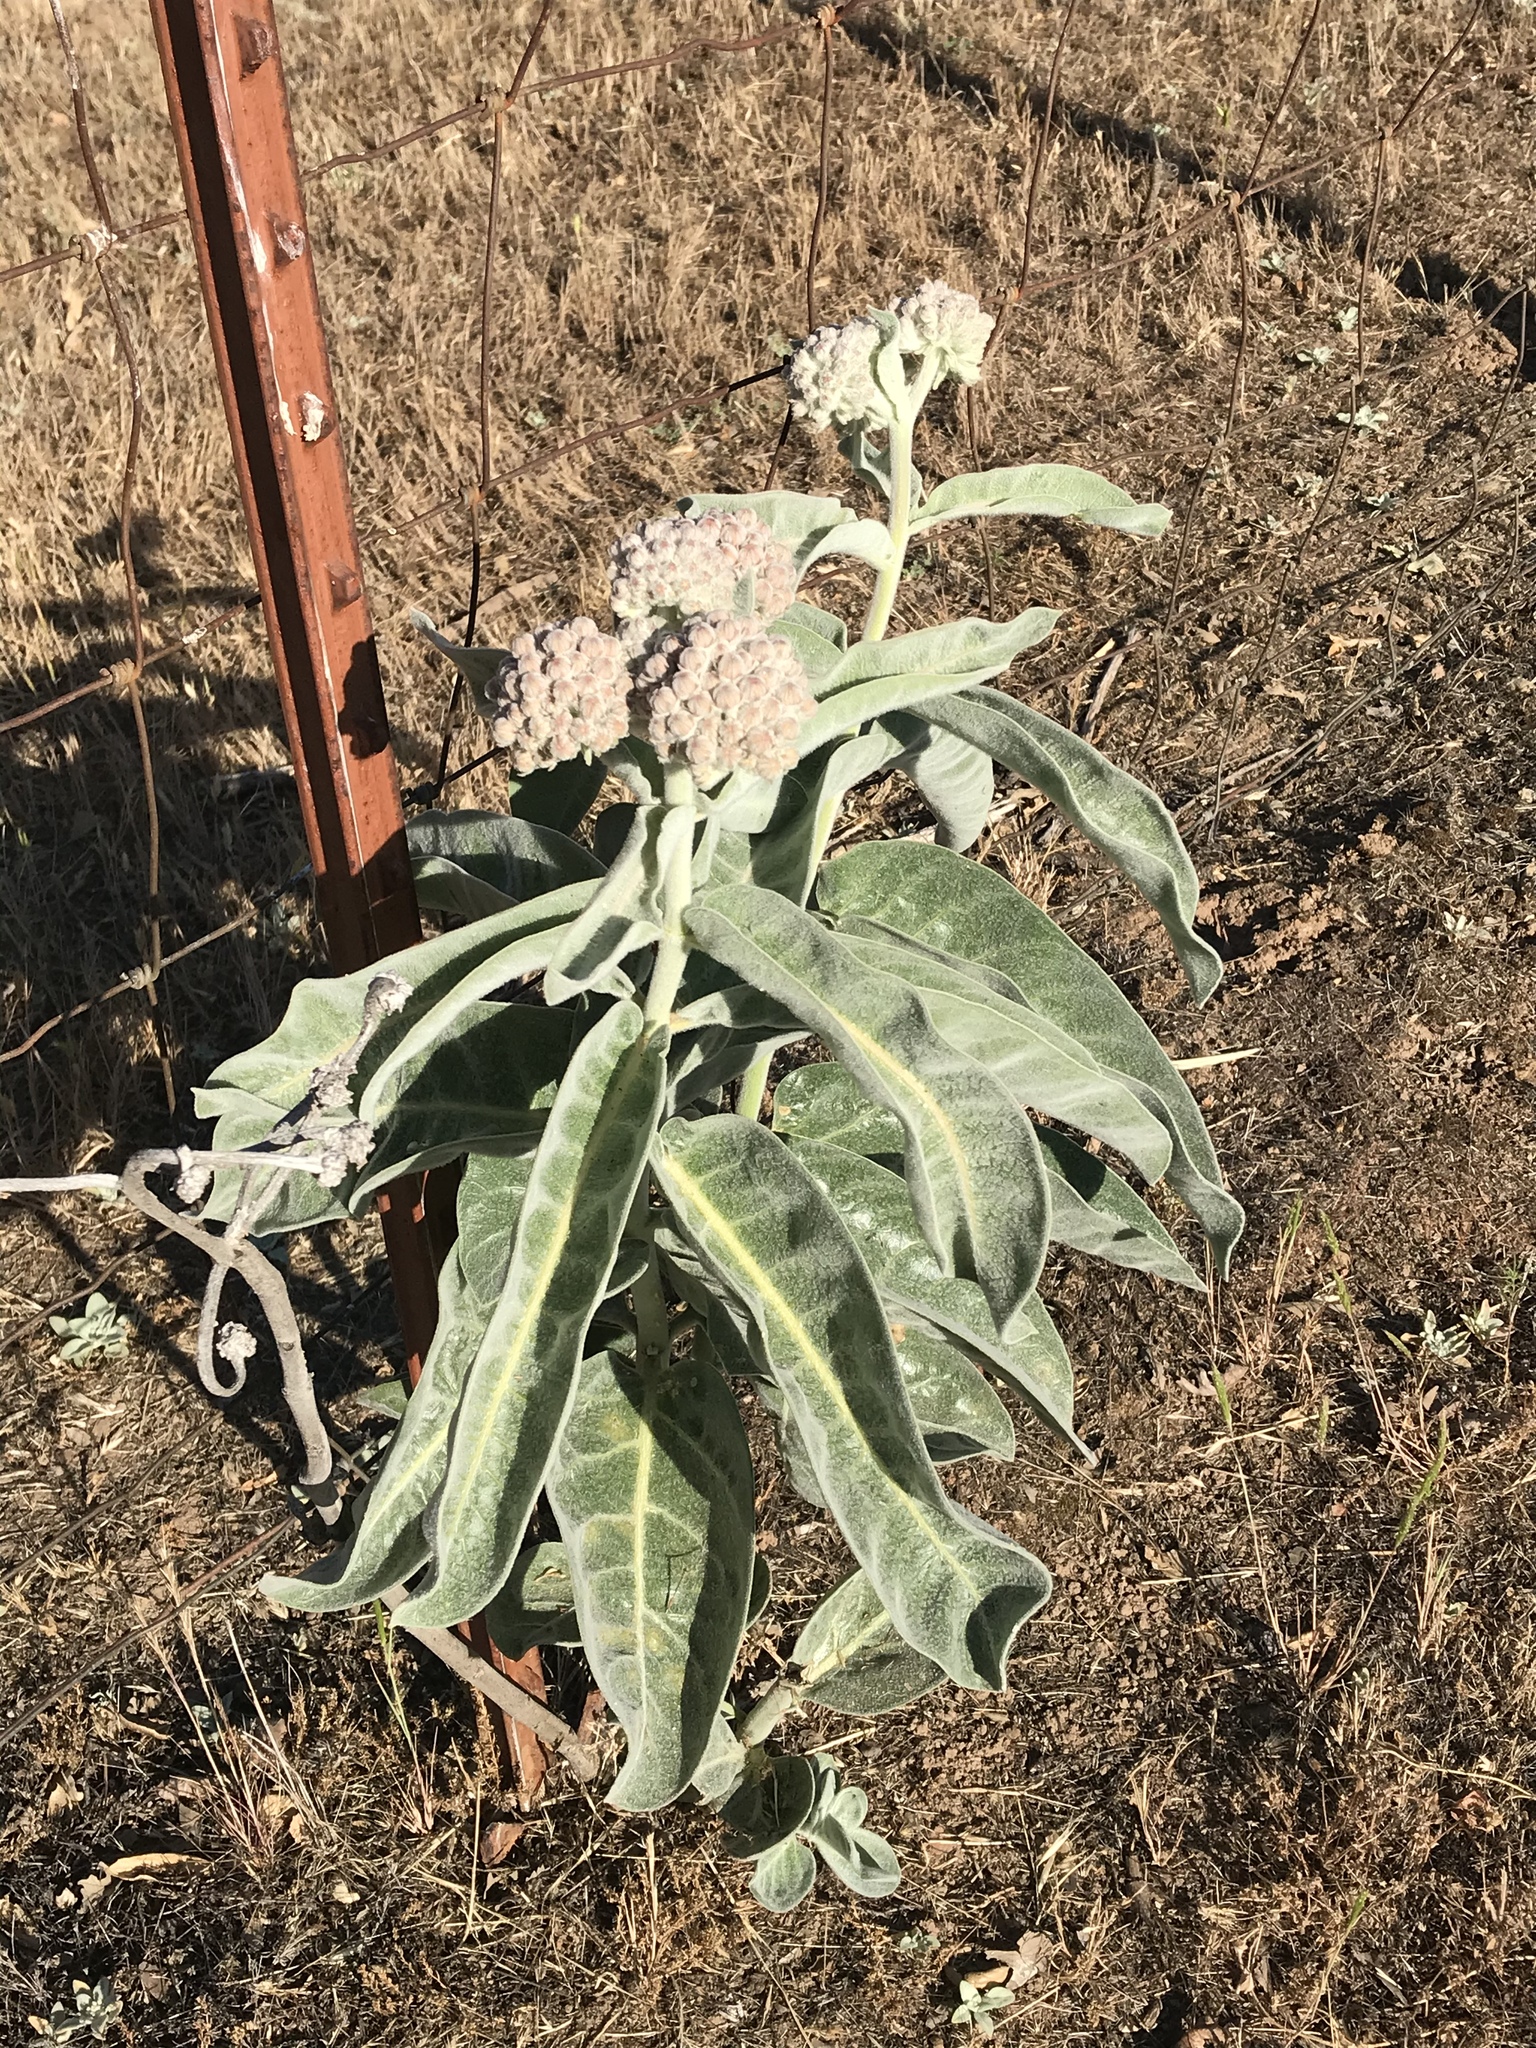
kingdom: Plantae
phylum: Tracheophyta
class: Magnoliopsida
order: Gentianales
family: Apocynaceae
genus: Asclepias
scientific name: Asclepias eriocarpa
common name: Indian milkweed
